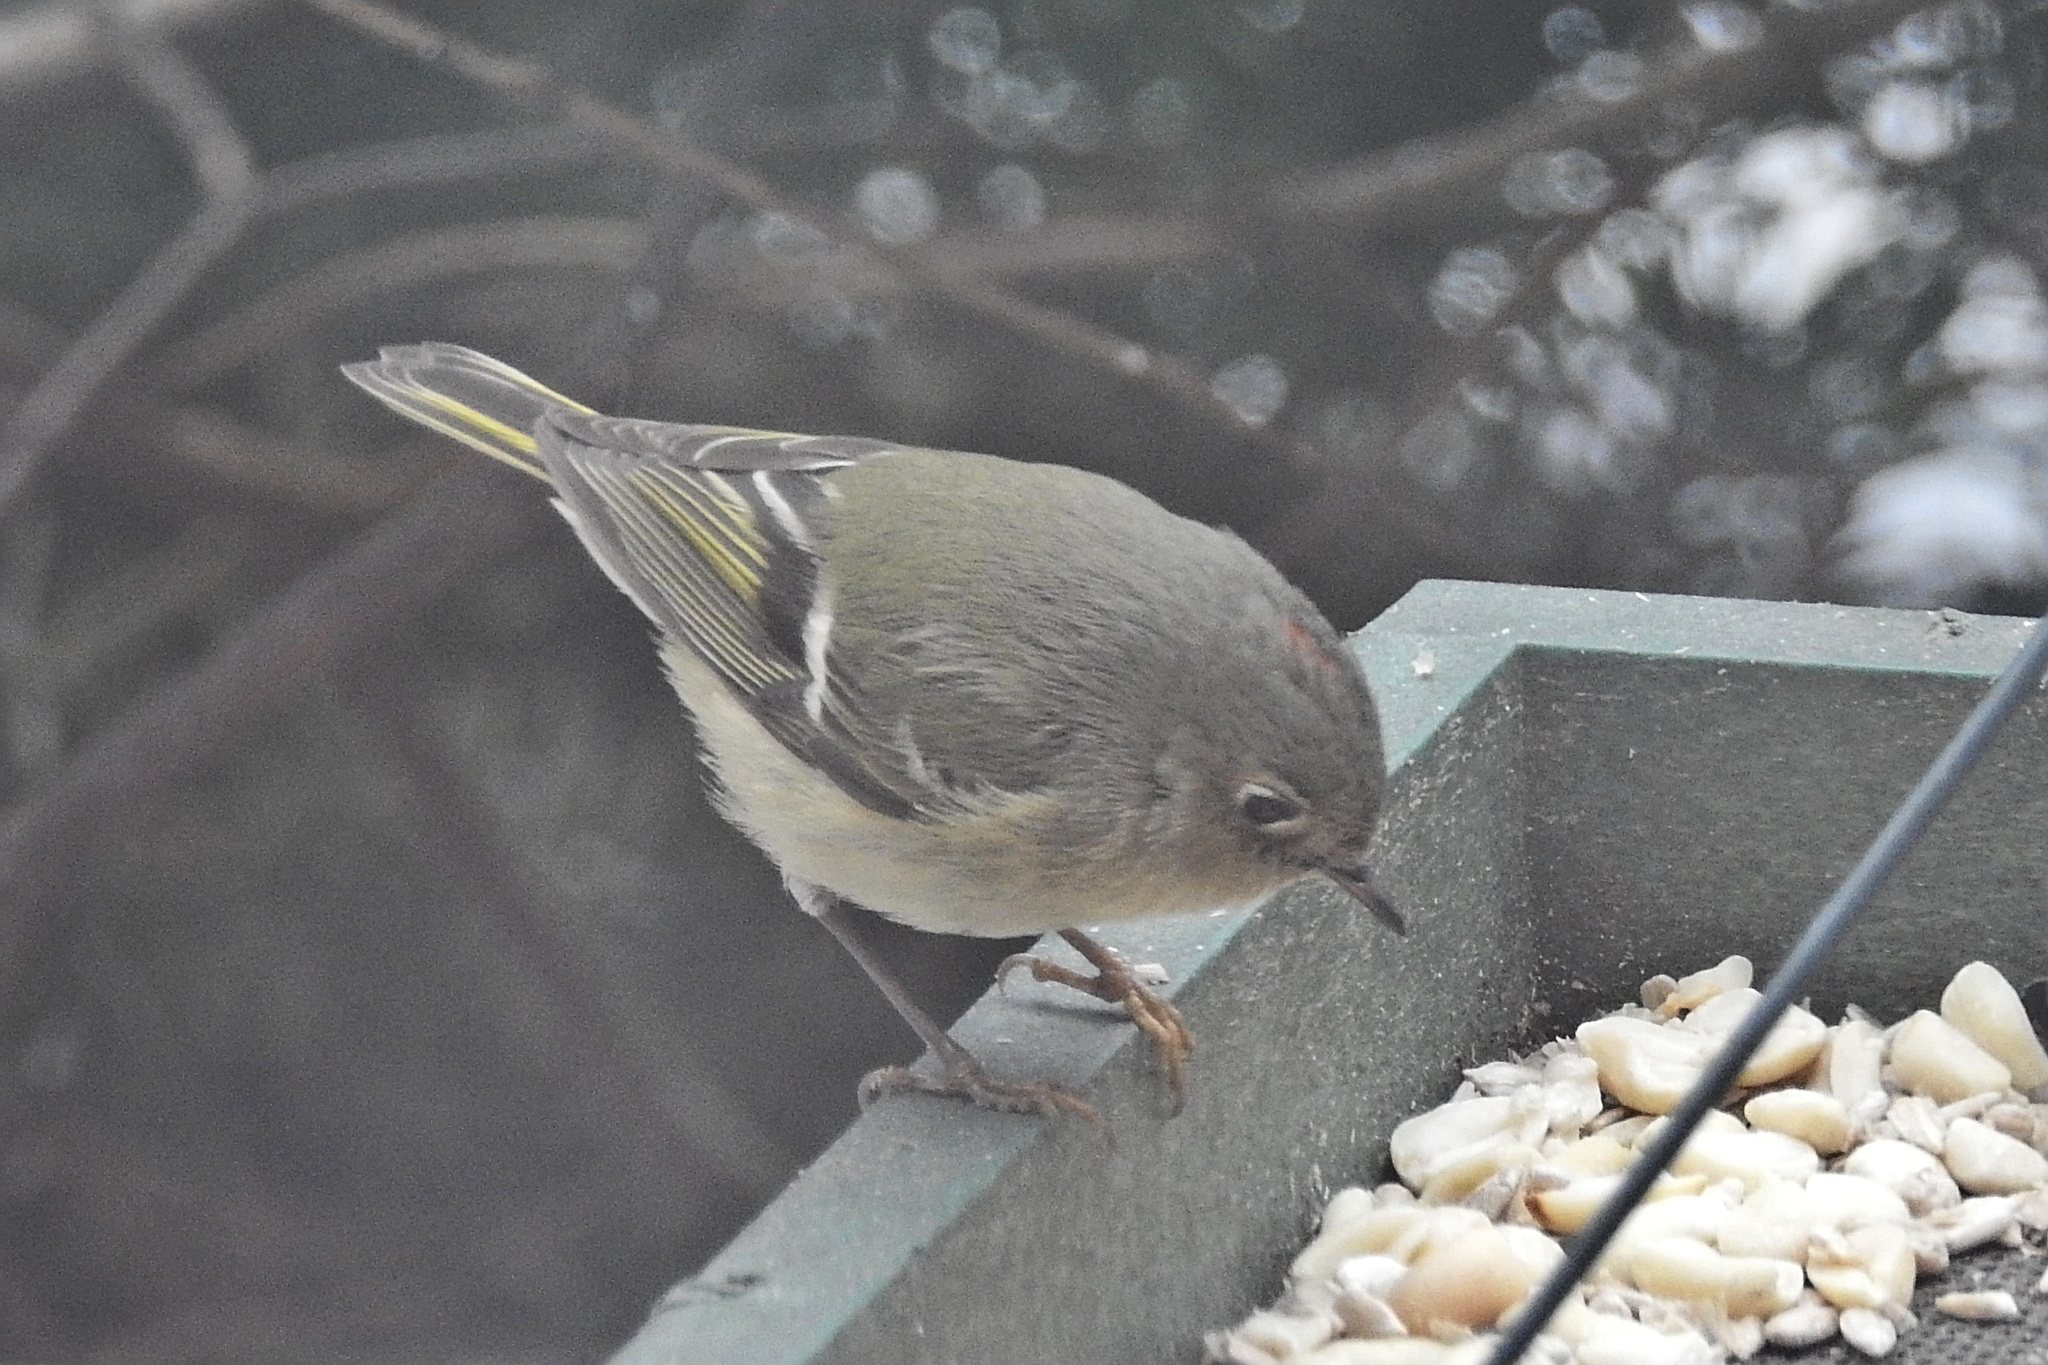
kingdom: Animalia
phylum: Chordata
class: Aves
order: Passeriformes
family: Regulidae
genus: Regulus
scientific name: Regulus calendula
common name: Ruby-crowned kinglet
